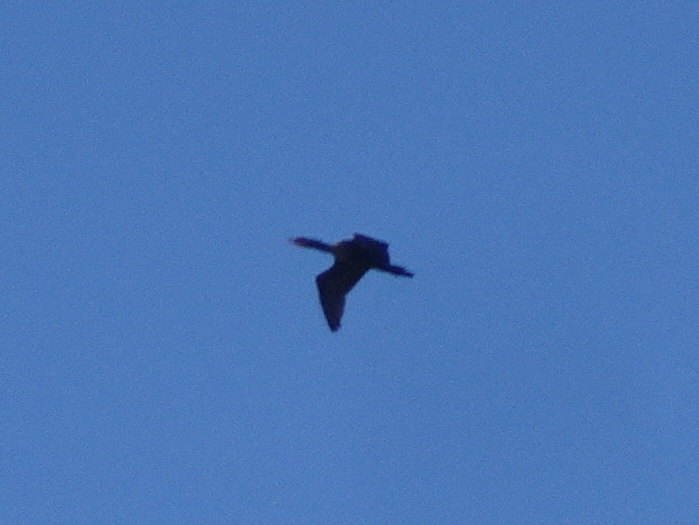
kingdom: Animalia
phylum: Chordata
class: Aves
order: Suliformes
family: Phalacrocoracidae
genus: Phalacrocorax
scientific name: Phalacrocorax auritus
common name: Double-crested cormorant
